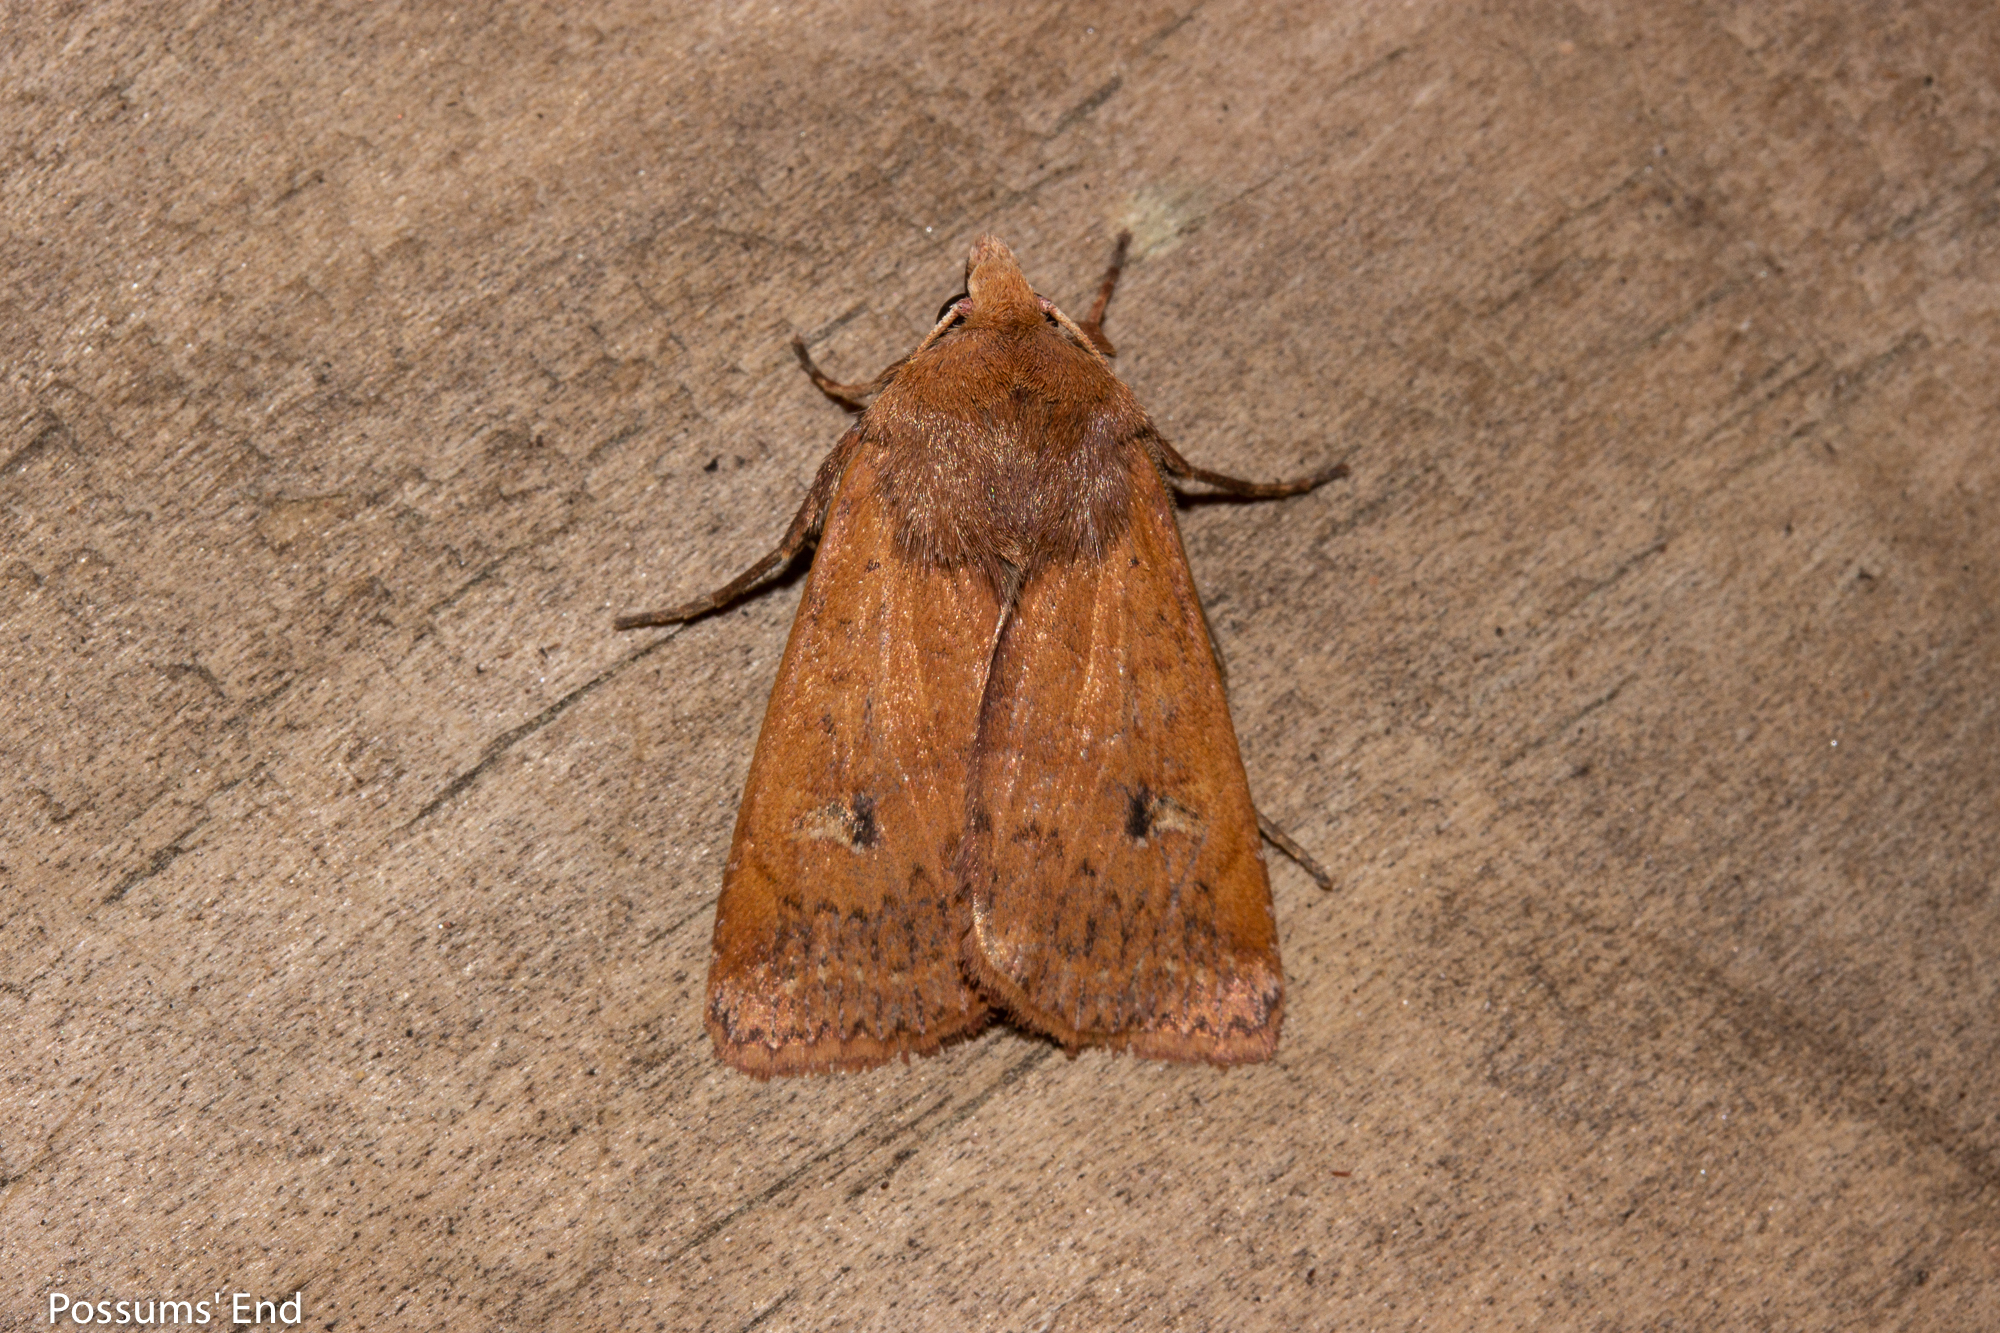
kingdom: Animalia
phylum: Arthropoda
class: Insecta
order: Lepidoptera
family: Noctuidae
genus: Diarsia
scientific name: Diarsia intermixta
